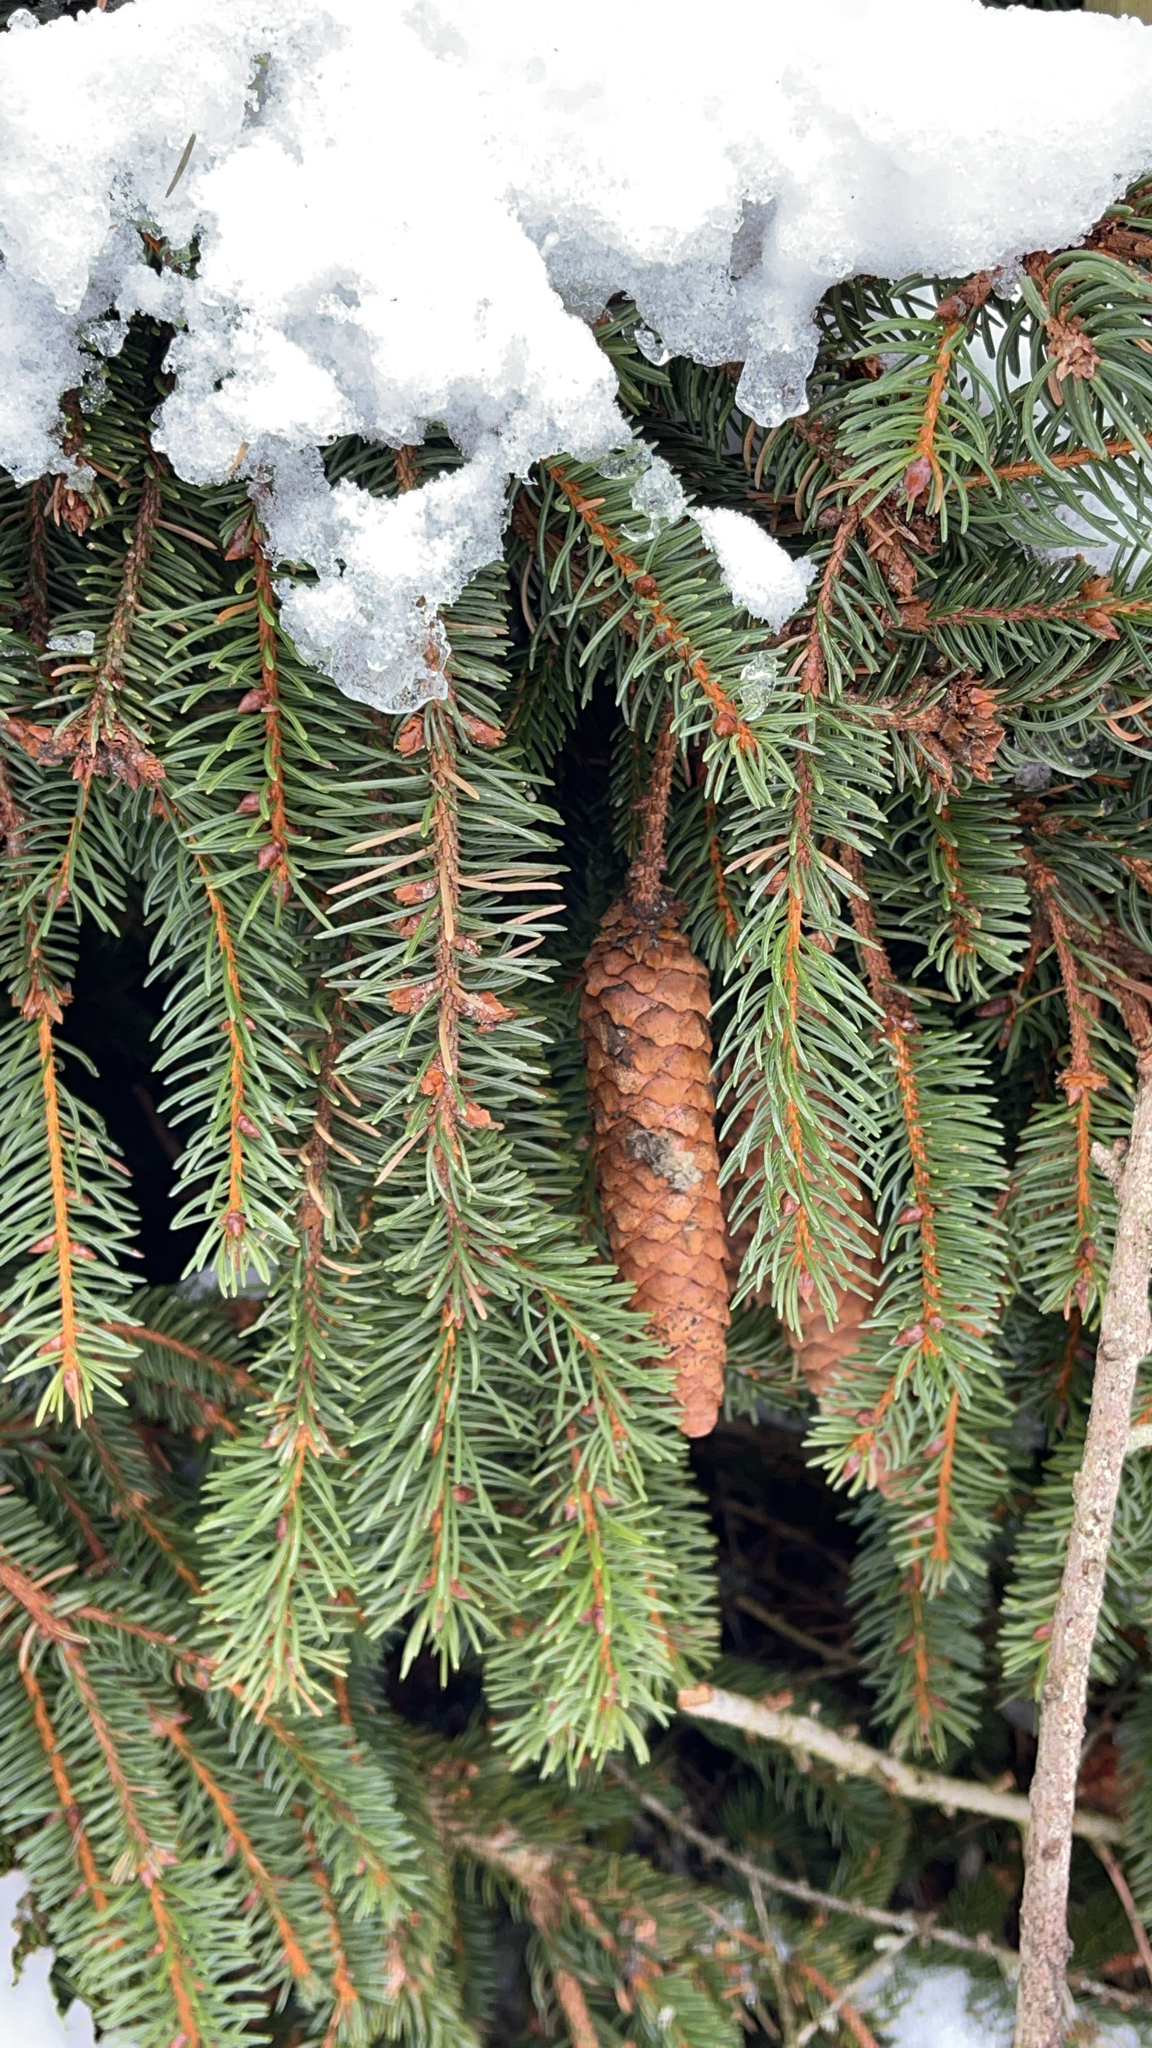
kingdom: Plantae
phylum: Tracheophyta
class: Pinopsida
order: Pinales
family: Pinaceae
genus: Picea
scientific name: Picea abies
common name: Norway spruce
